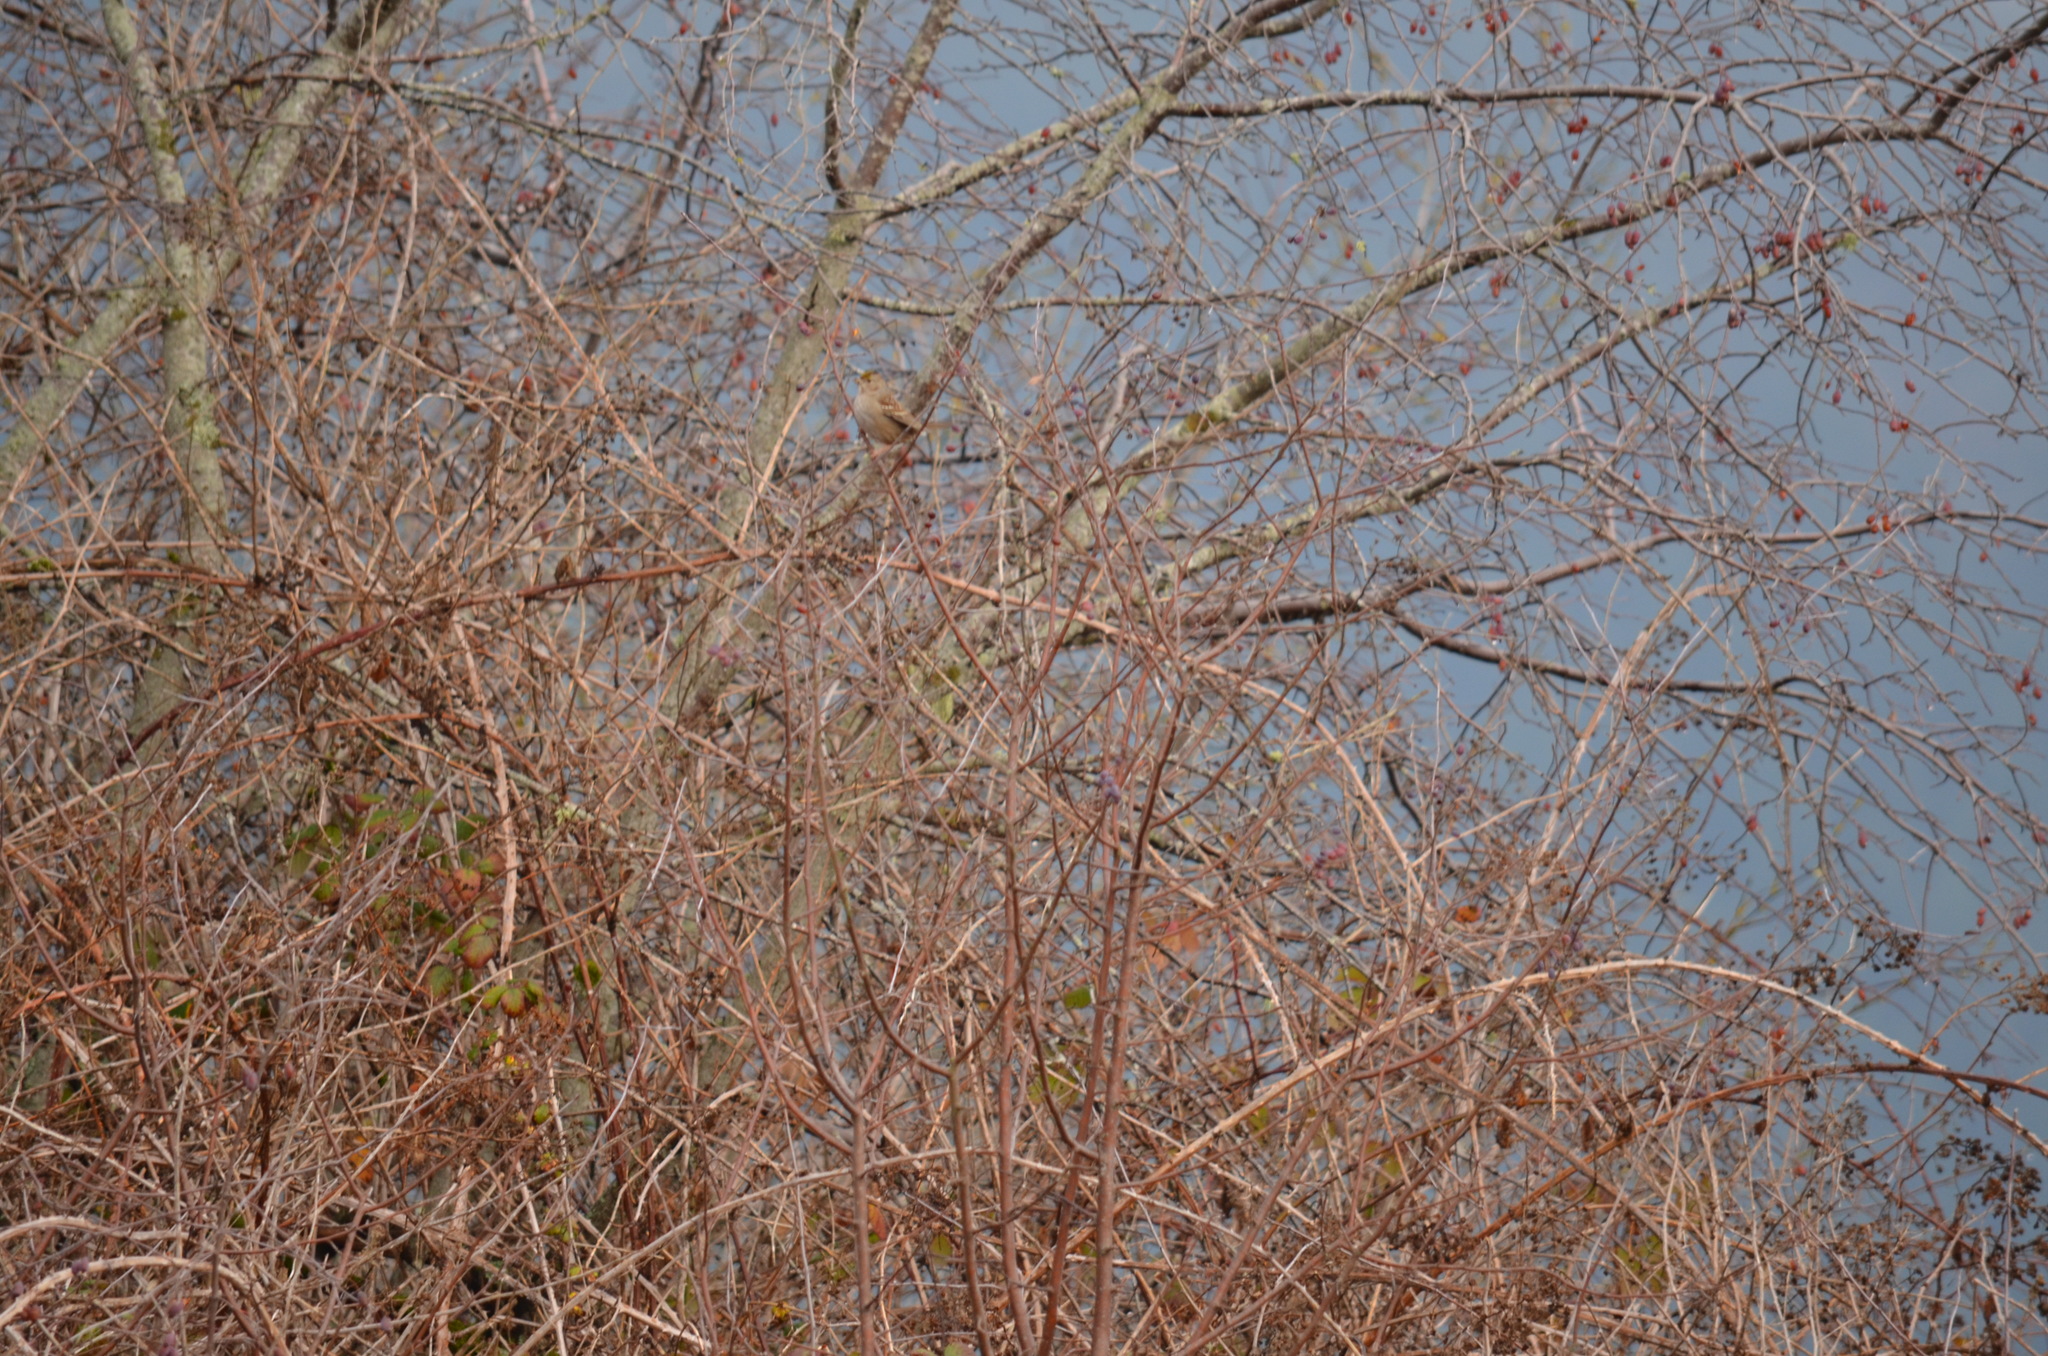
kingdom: Animalia
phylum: Chordata
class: Aves
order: Passeriformes
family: Passerellidae
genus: Zonotrichia
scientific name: Zonotrichia atricapilla
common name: Golden-crowned sparrow
